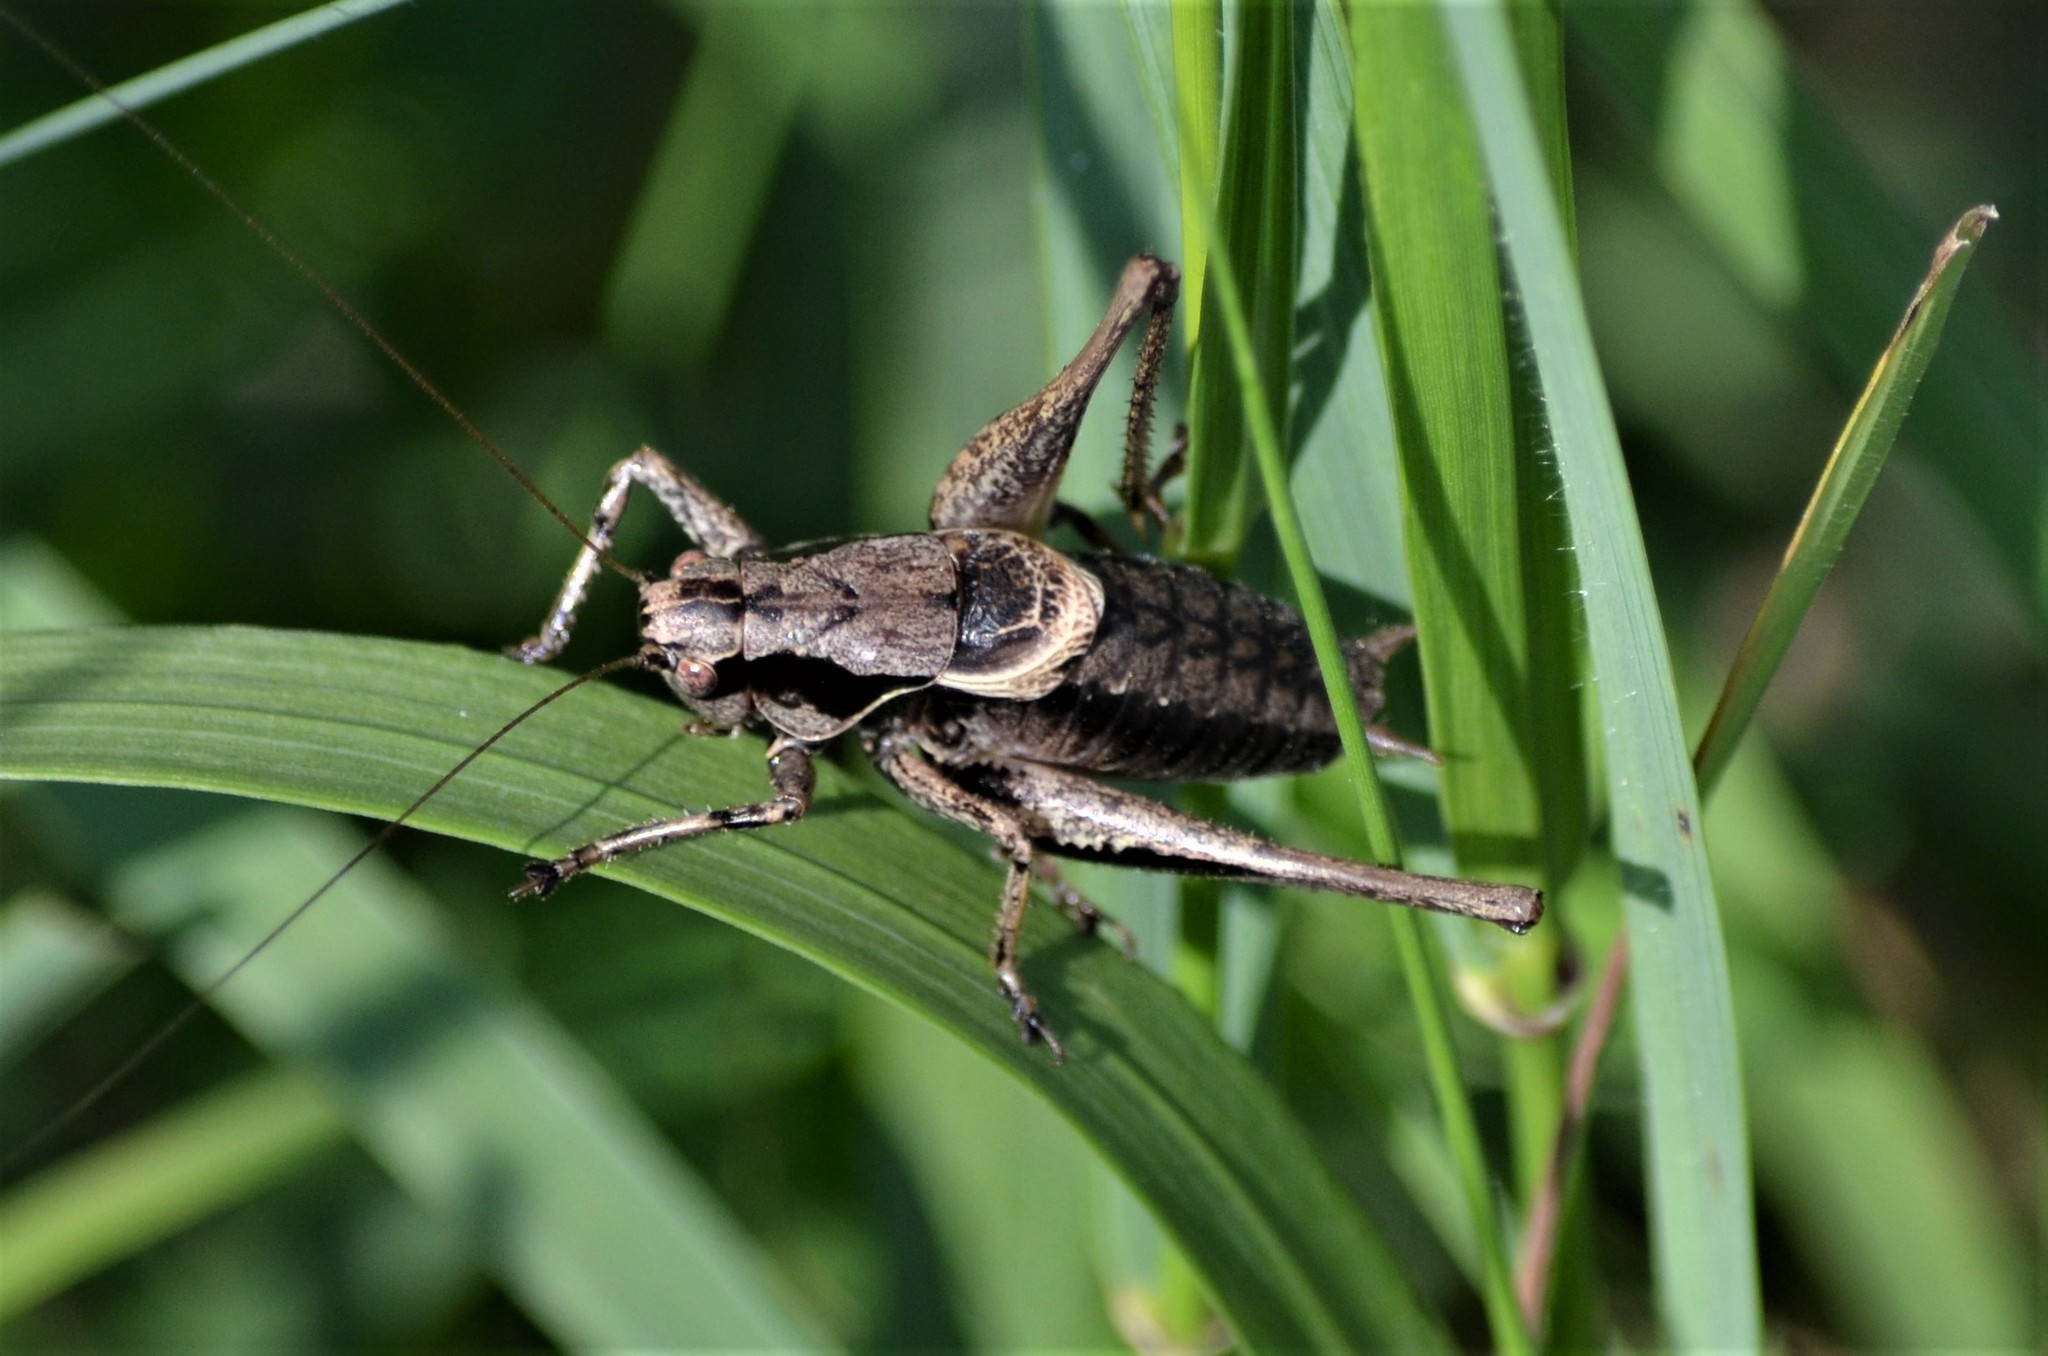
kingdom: Animalia
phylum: Arthropoda
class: Insecta
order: Orthoptera
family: Tettigoniidae
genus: Pholidoptera
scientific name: Pholidoptera griseoaptera
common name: Dark bush-cricket
